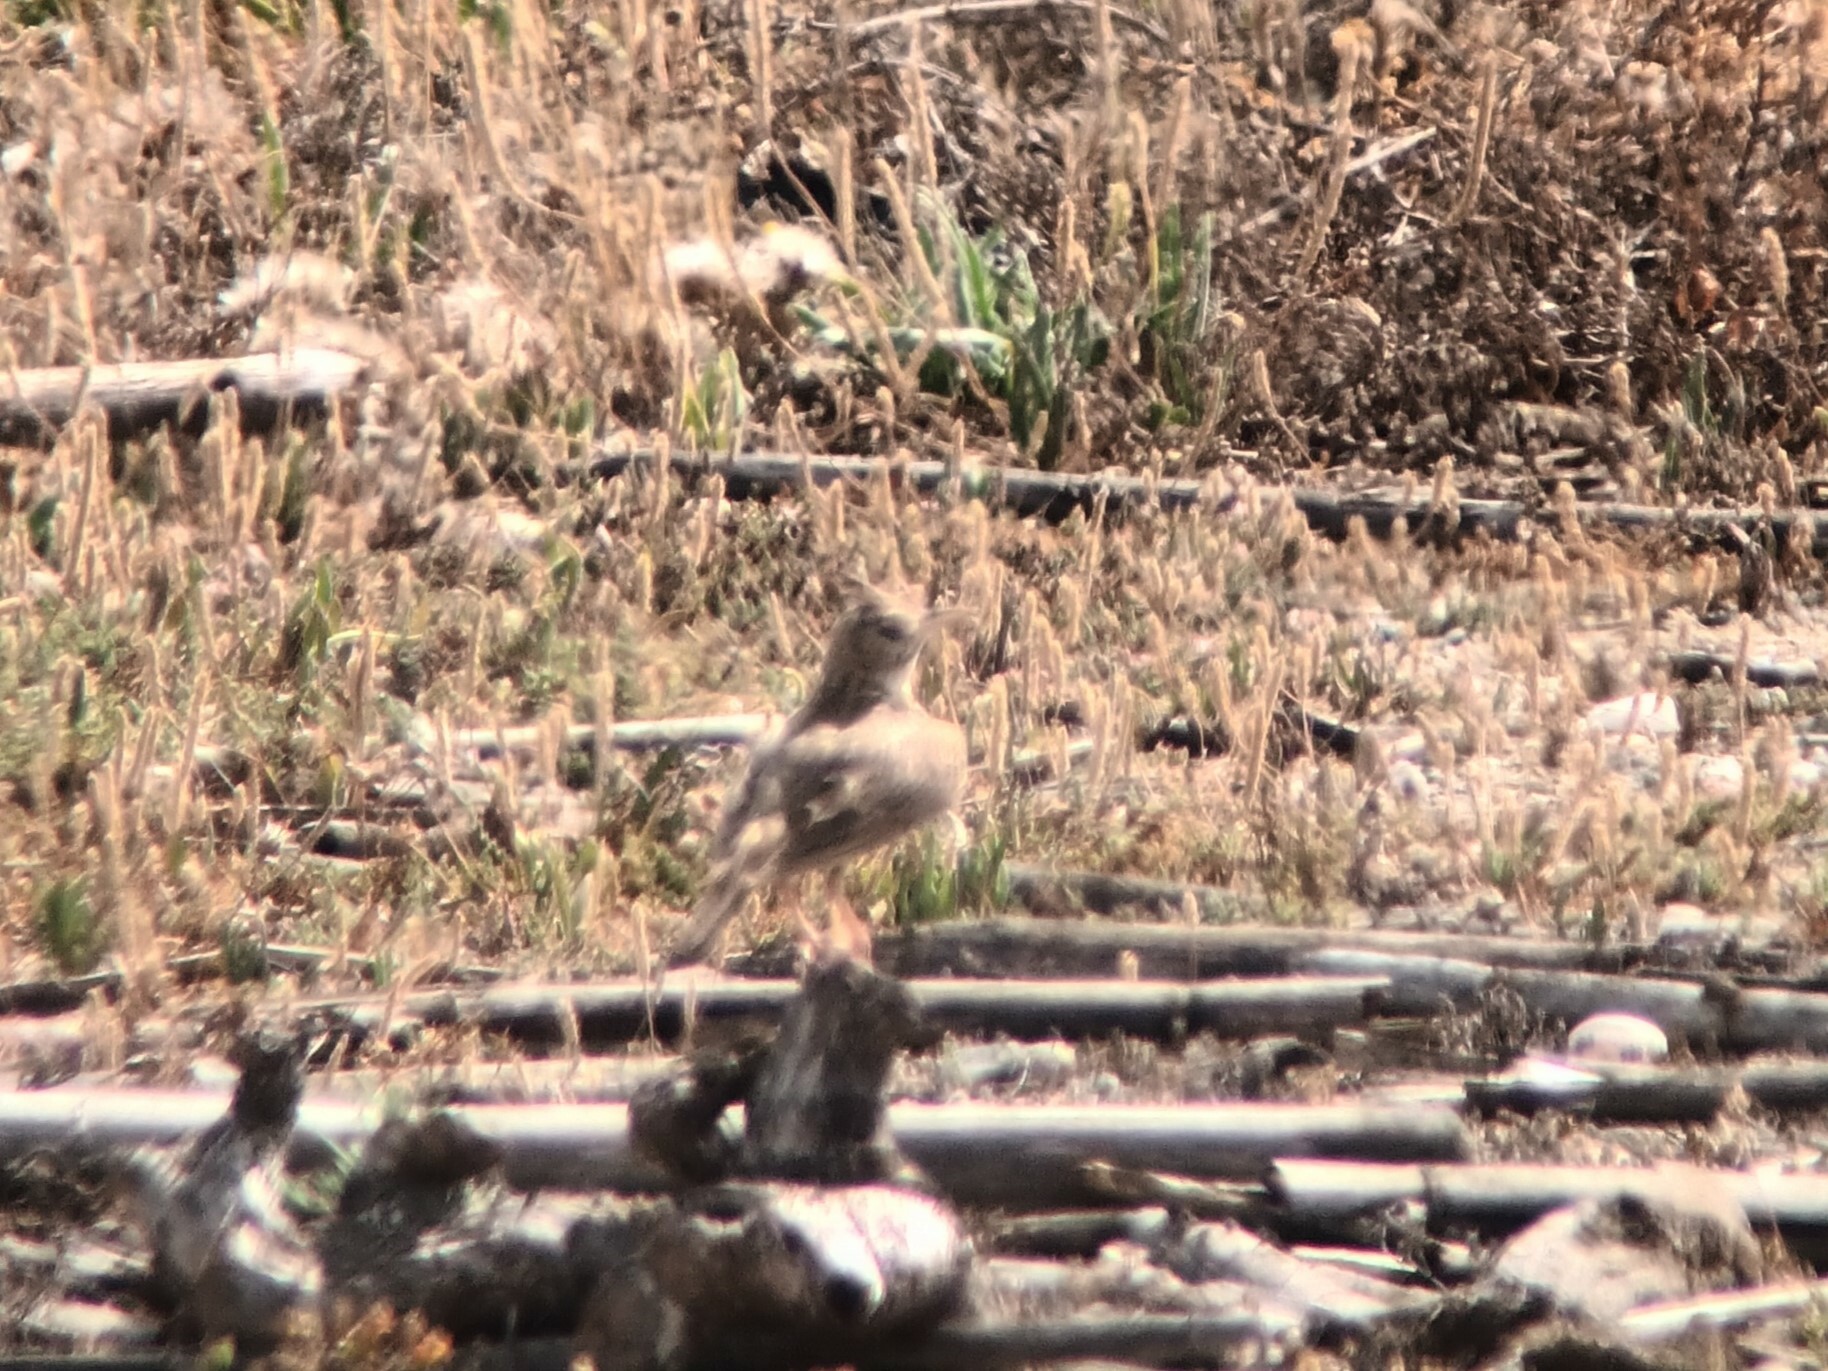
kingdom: Animalia
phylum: Chordata
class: Aves
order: Passeriformes
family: Alaudidae
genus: Galerida
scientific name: Galerida cristata
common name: Crested lark
